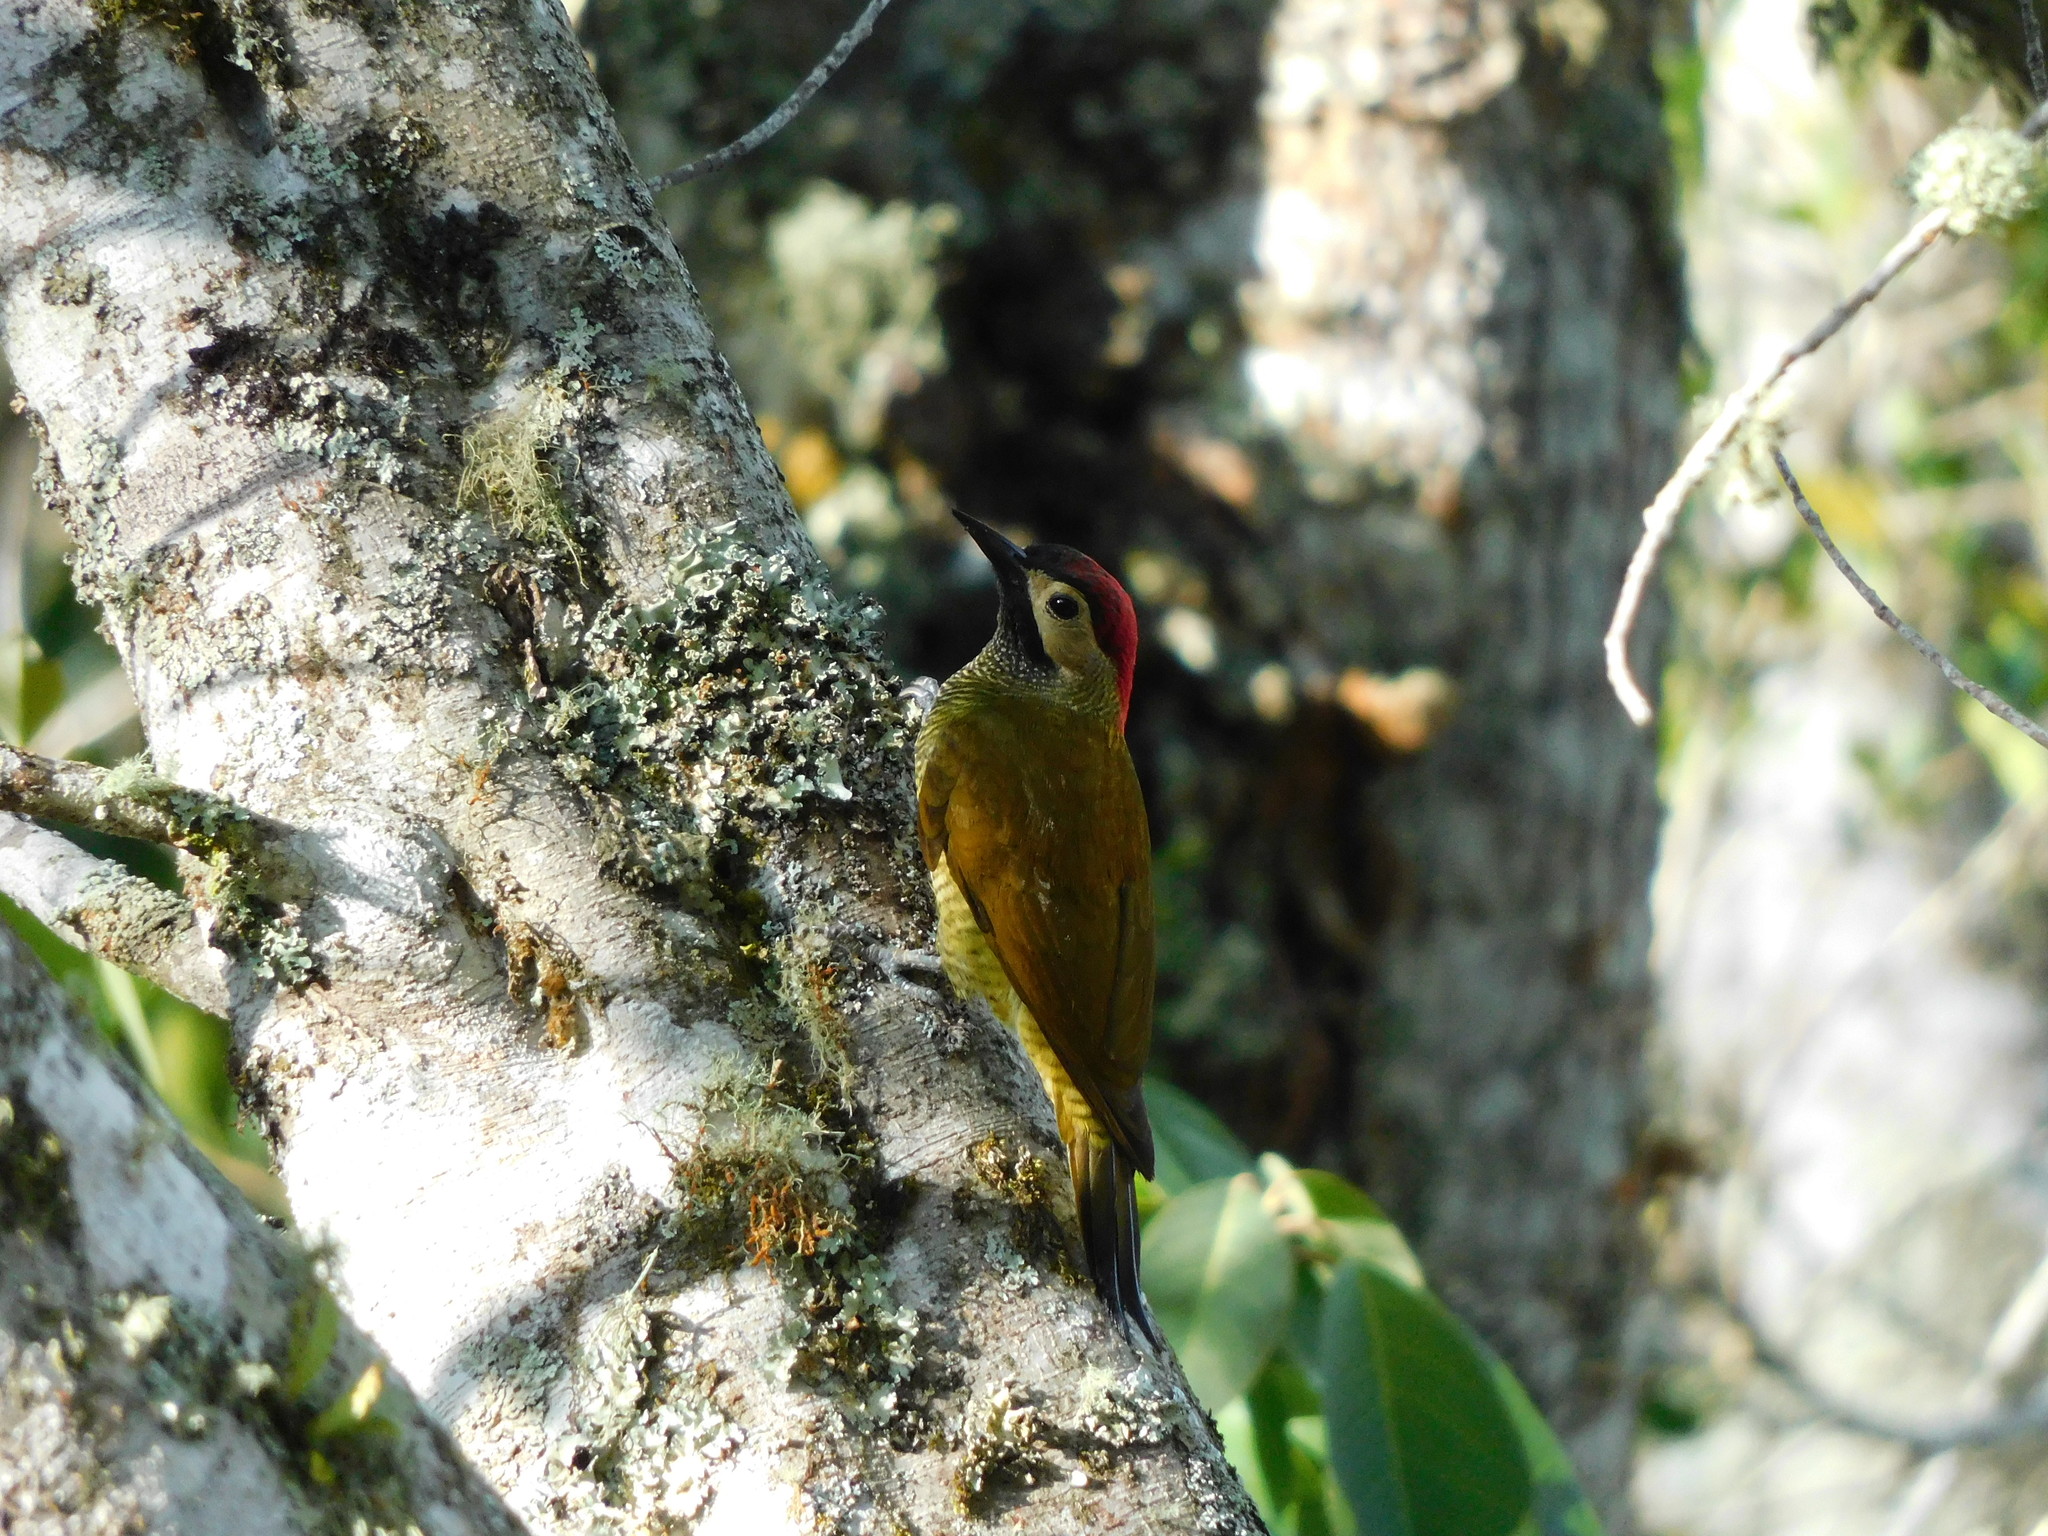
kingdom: Animalia
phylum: Chordata
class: Aves
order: Piciformes
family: Picidae
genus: Colaptes
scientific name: Colaptes rubiginosus
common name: Golden-olive woodpecker
